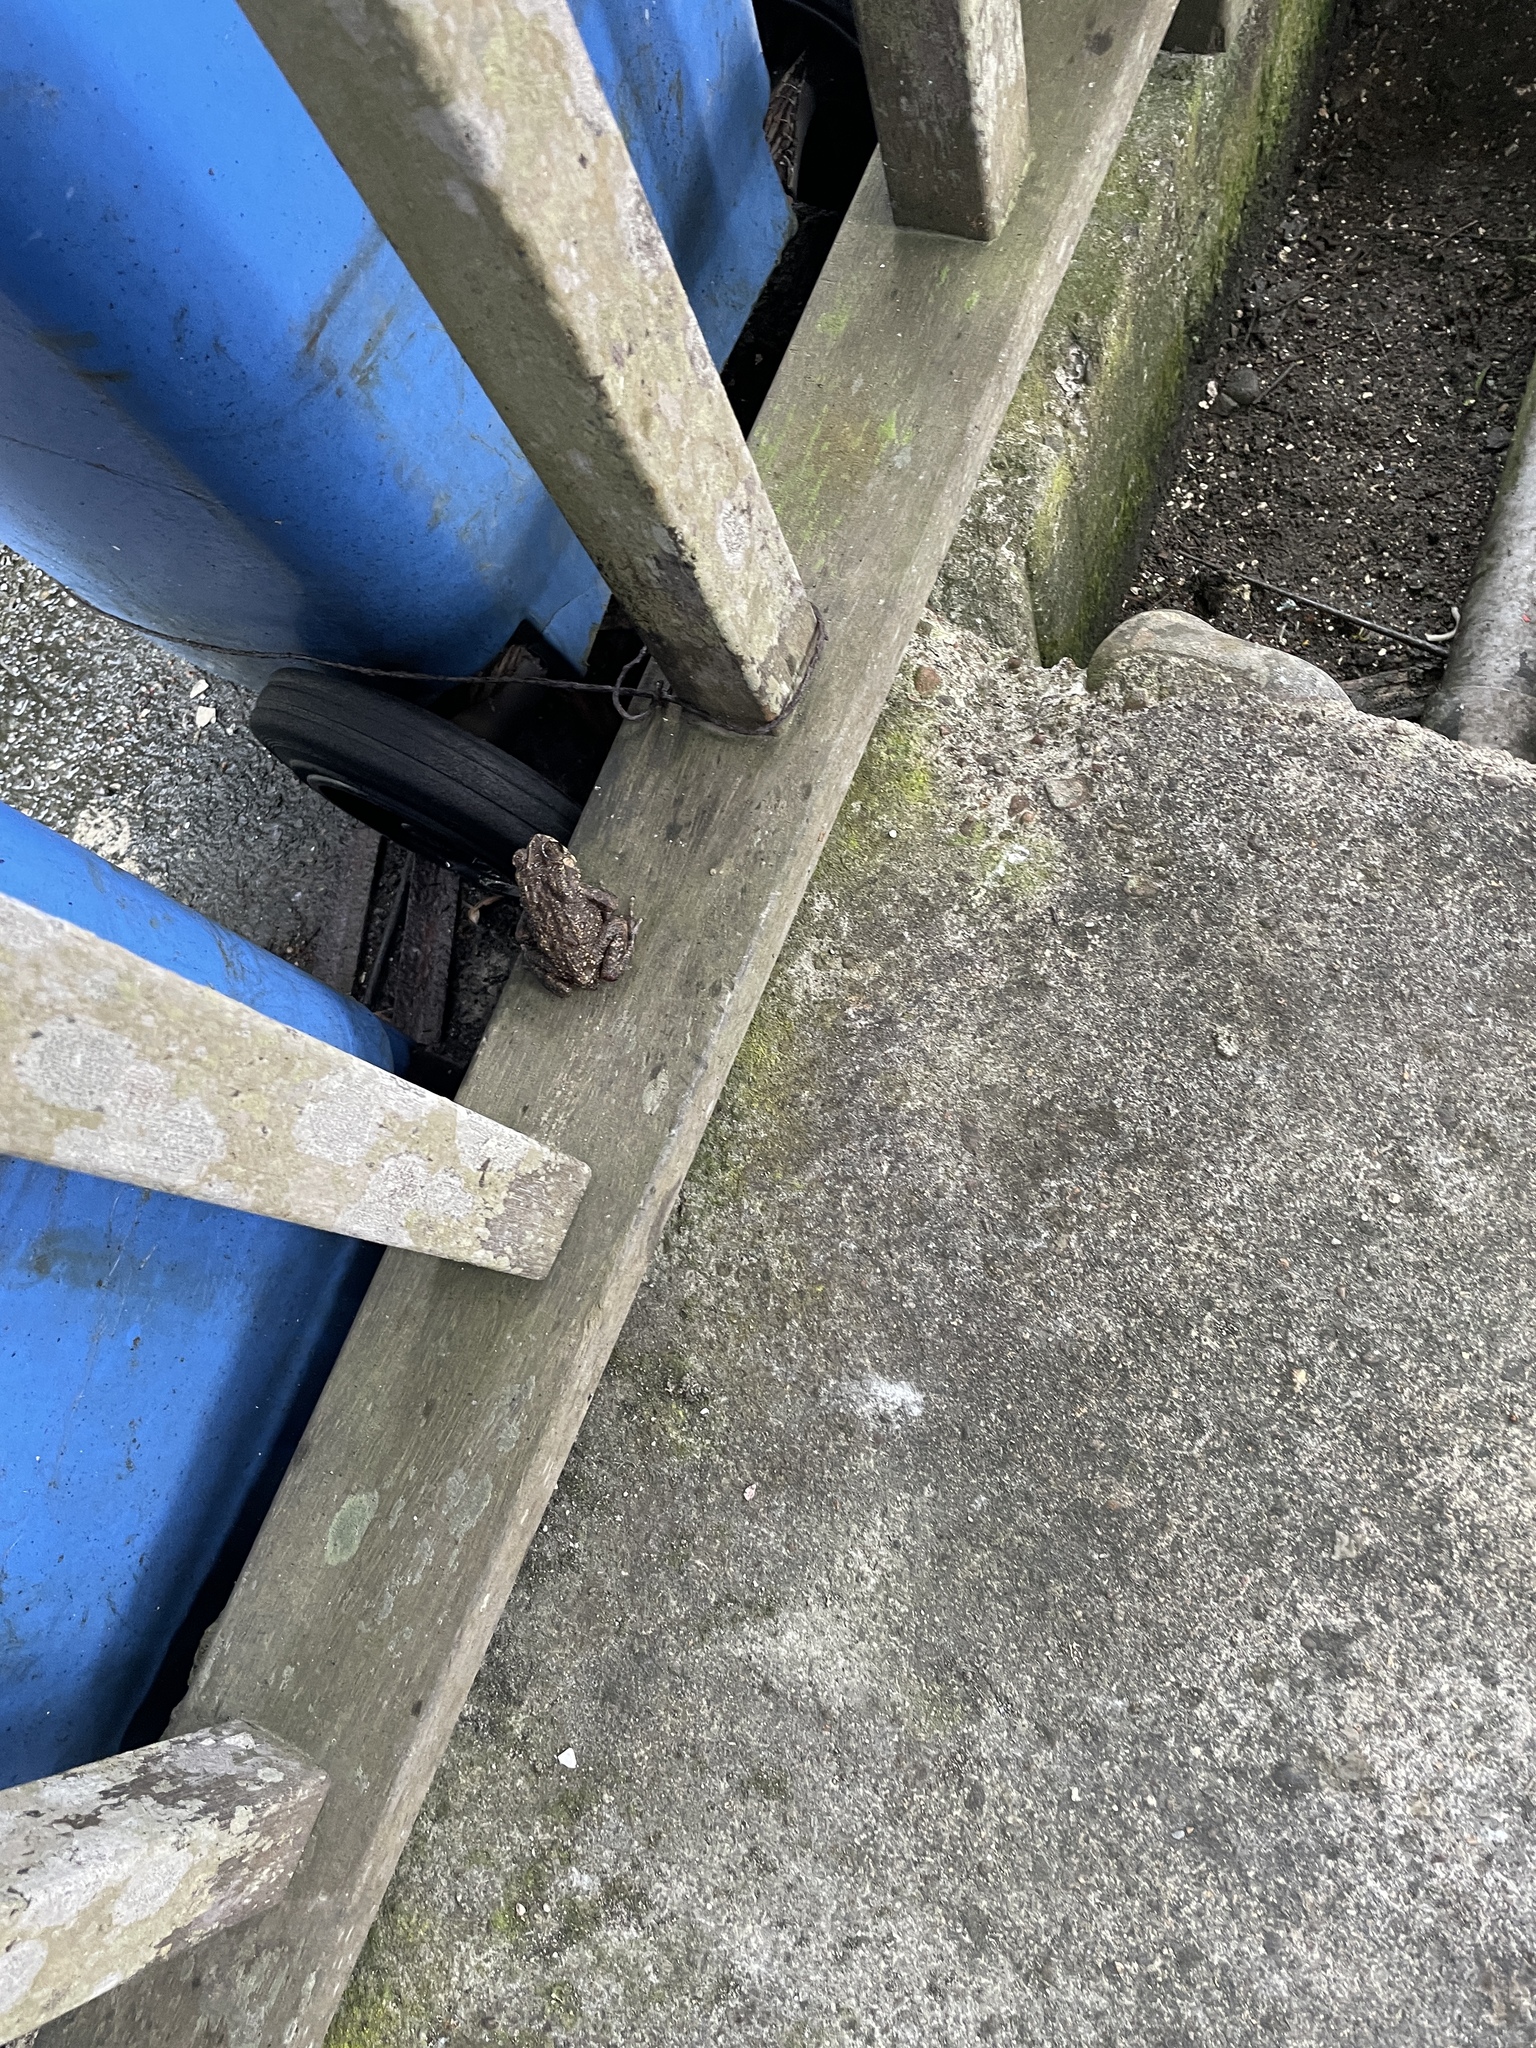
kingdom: Animalia
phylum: Chordata
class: Amphibia
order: Anura
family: Bufonidae
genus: Duttaphrynus
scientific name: Duttaphrynus melanostictus
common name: Common sunda toad
